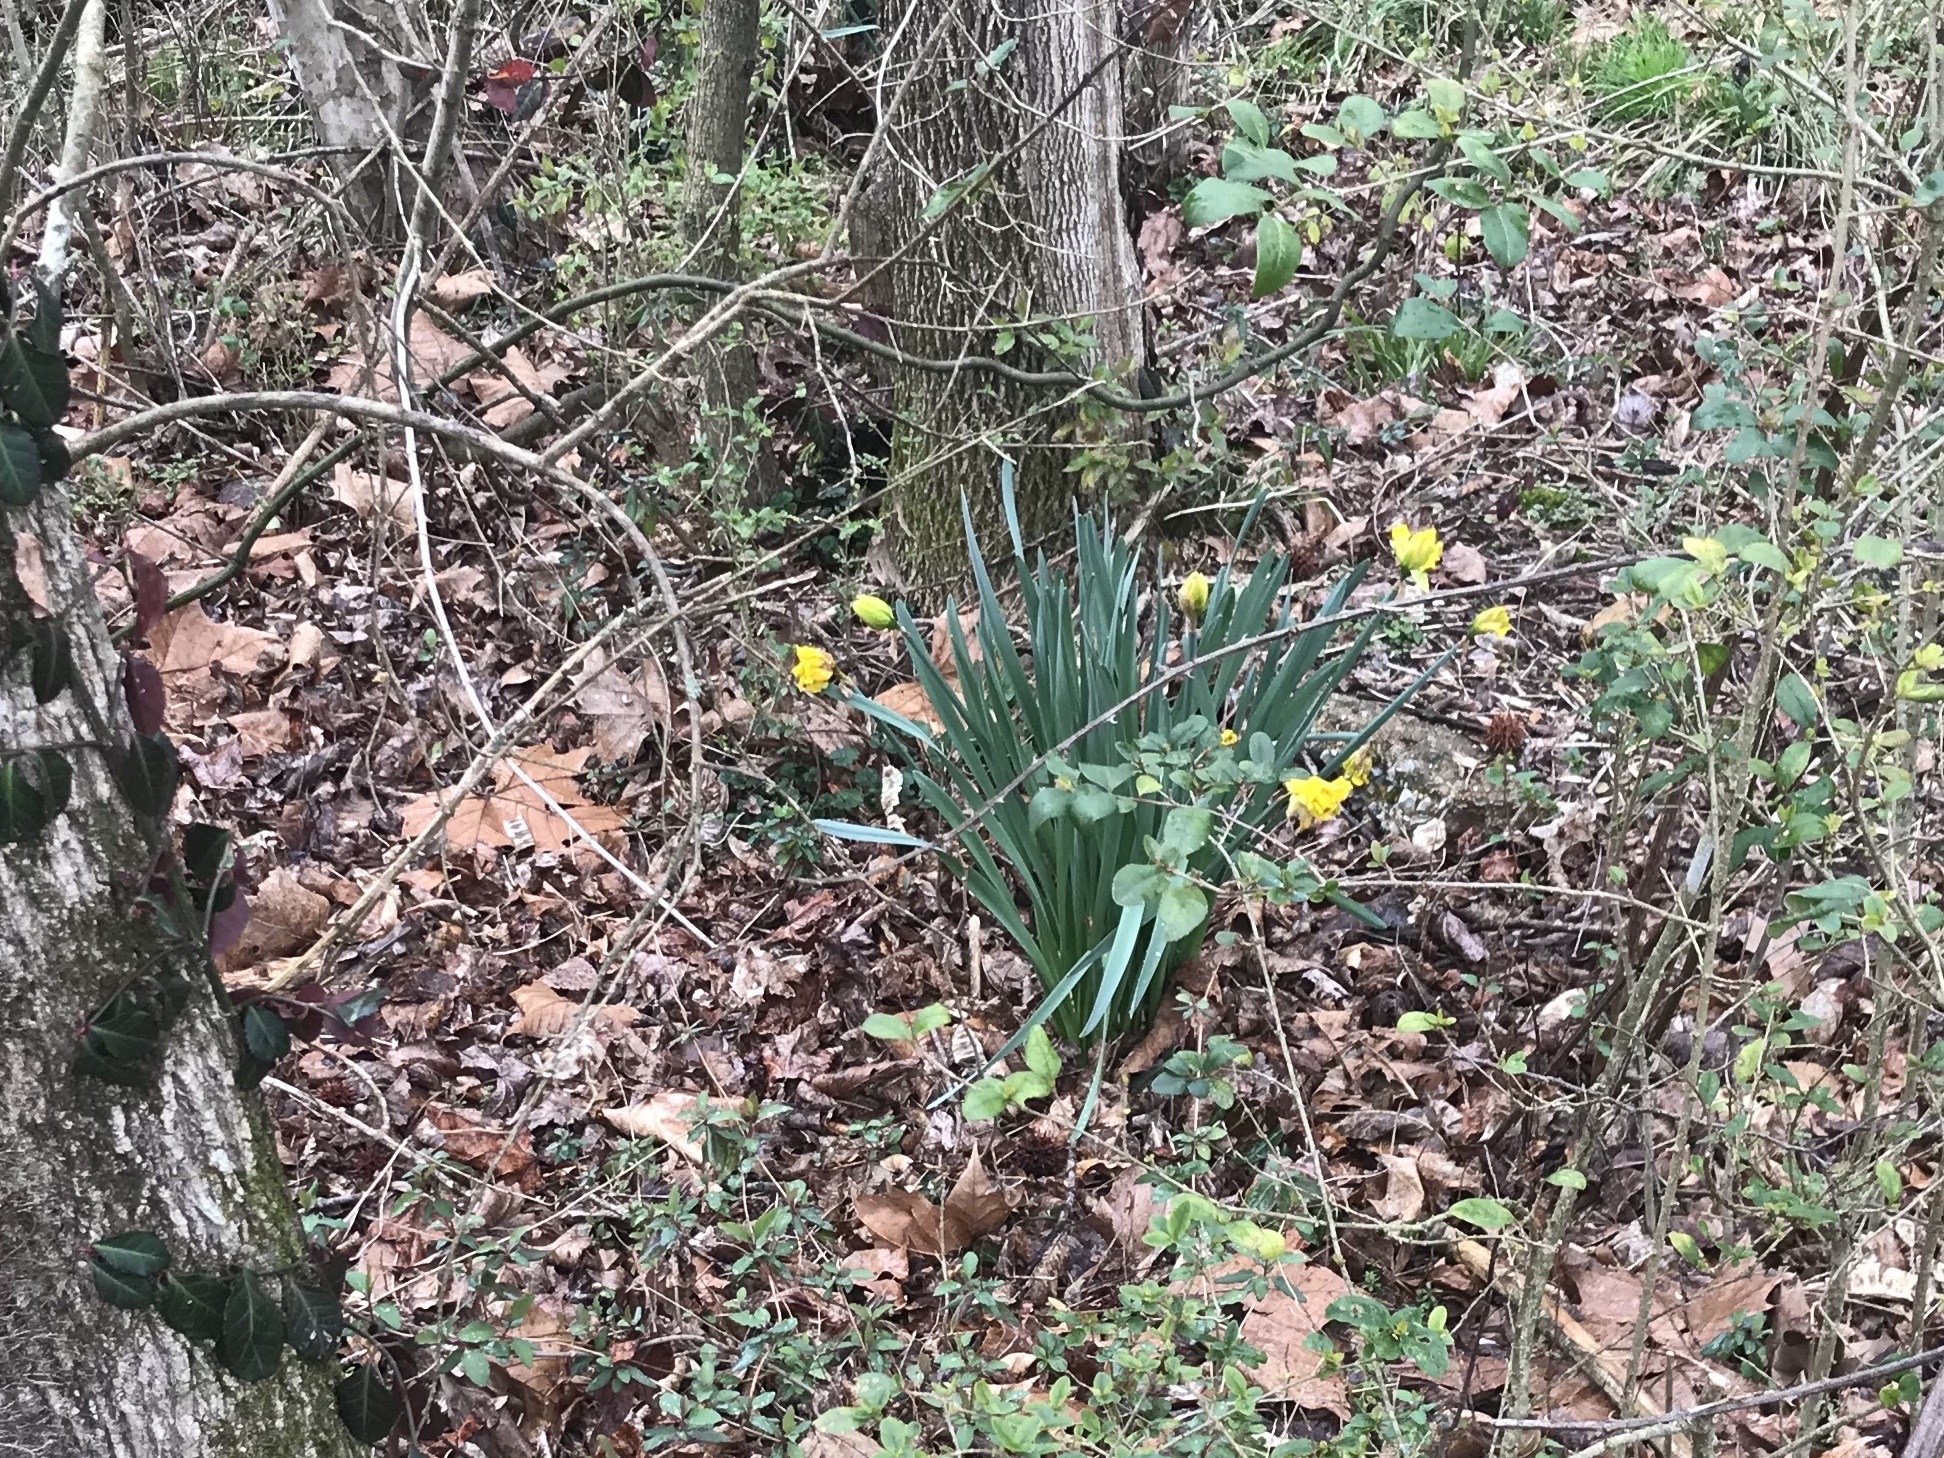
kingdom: Plantae
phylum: Tracheophyta
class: Liliopsida
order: Asparagales
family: Amaryllidaceae
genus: Narcissus
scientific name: Narcissus pseudonarcissus
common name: Daffodil
